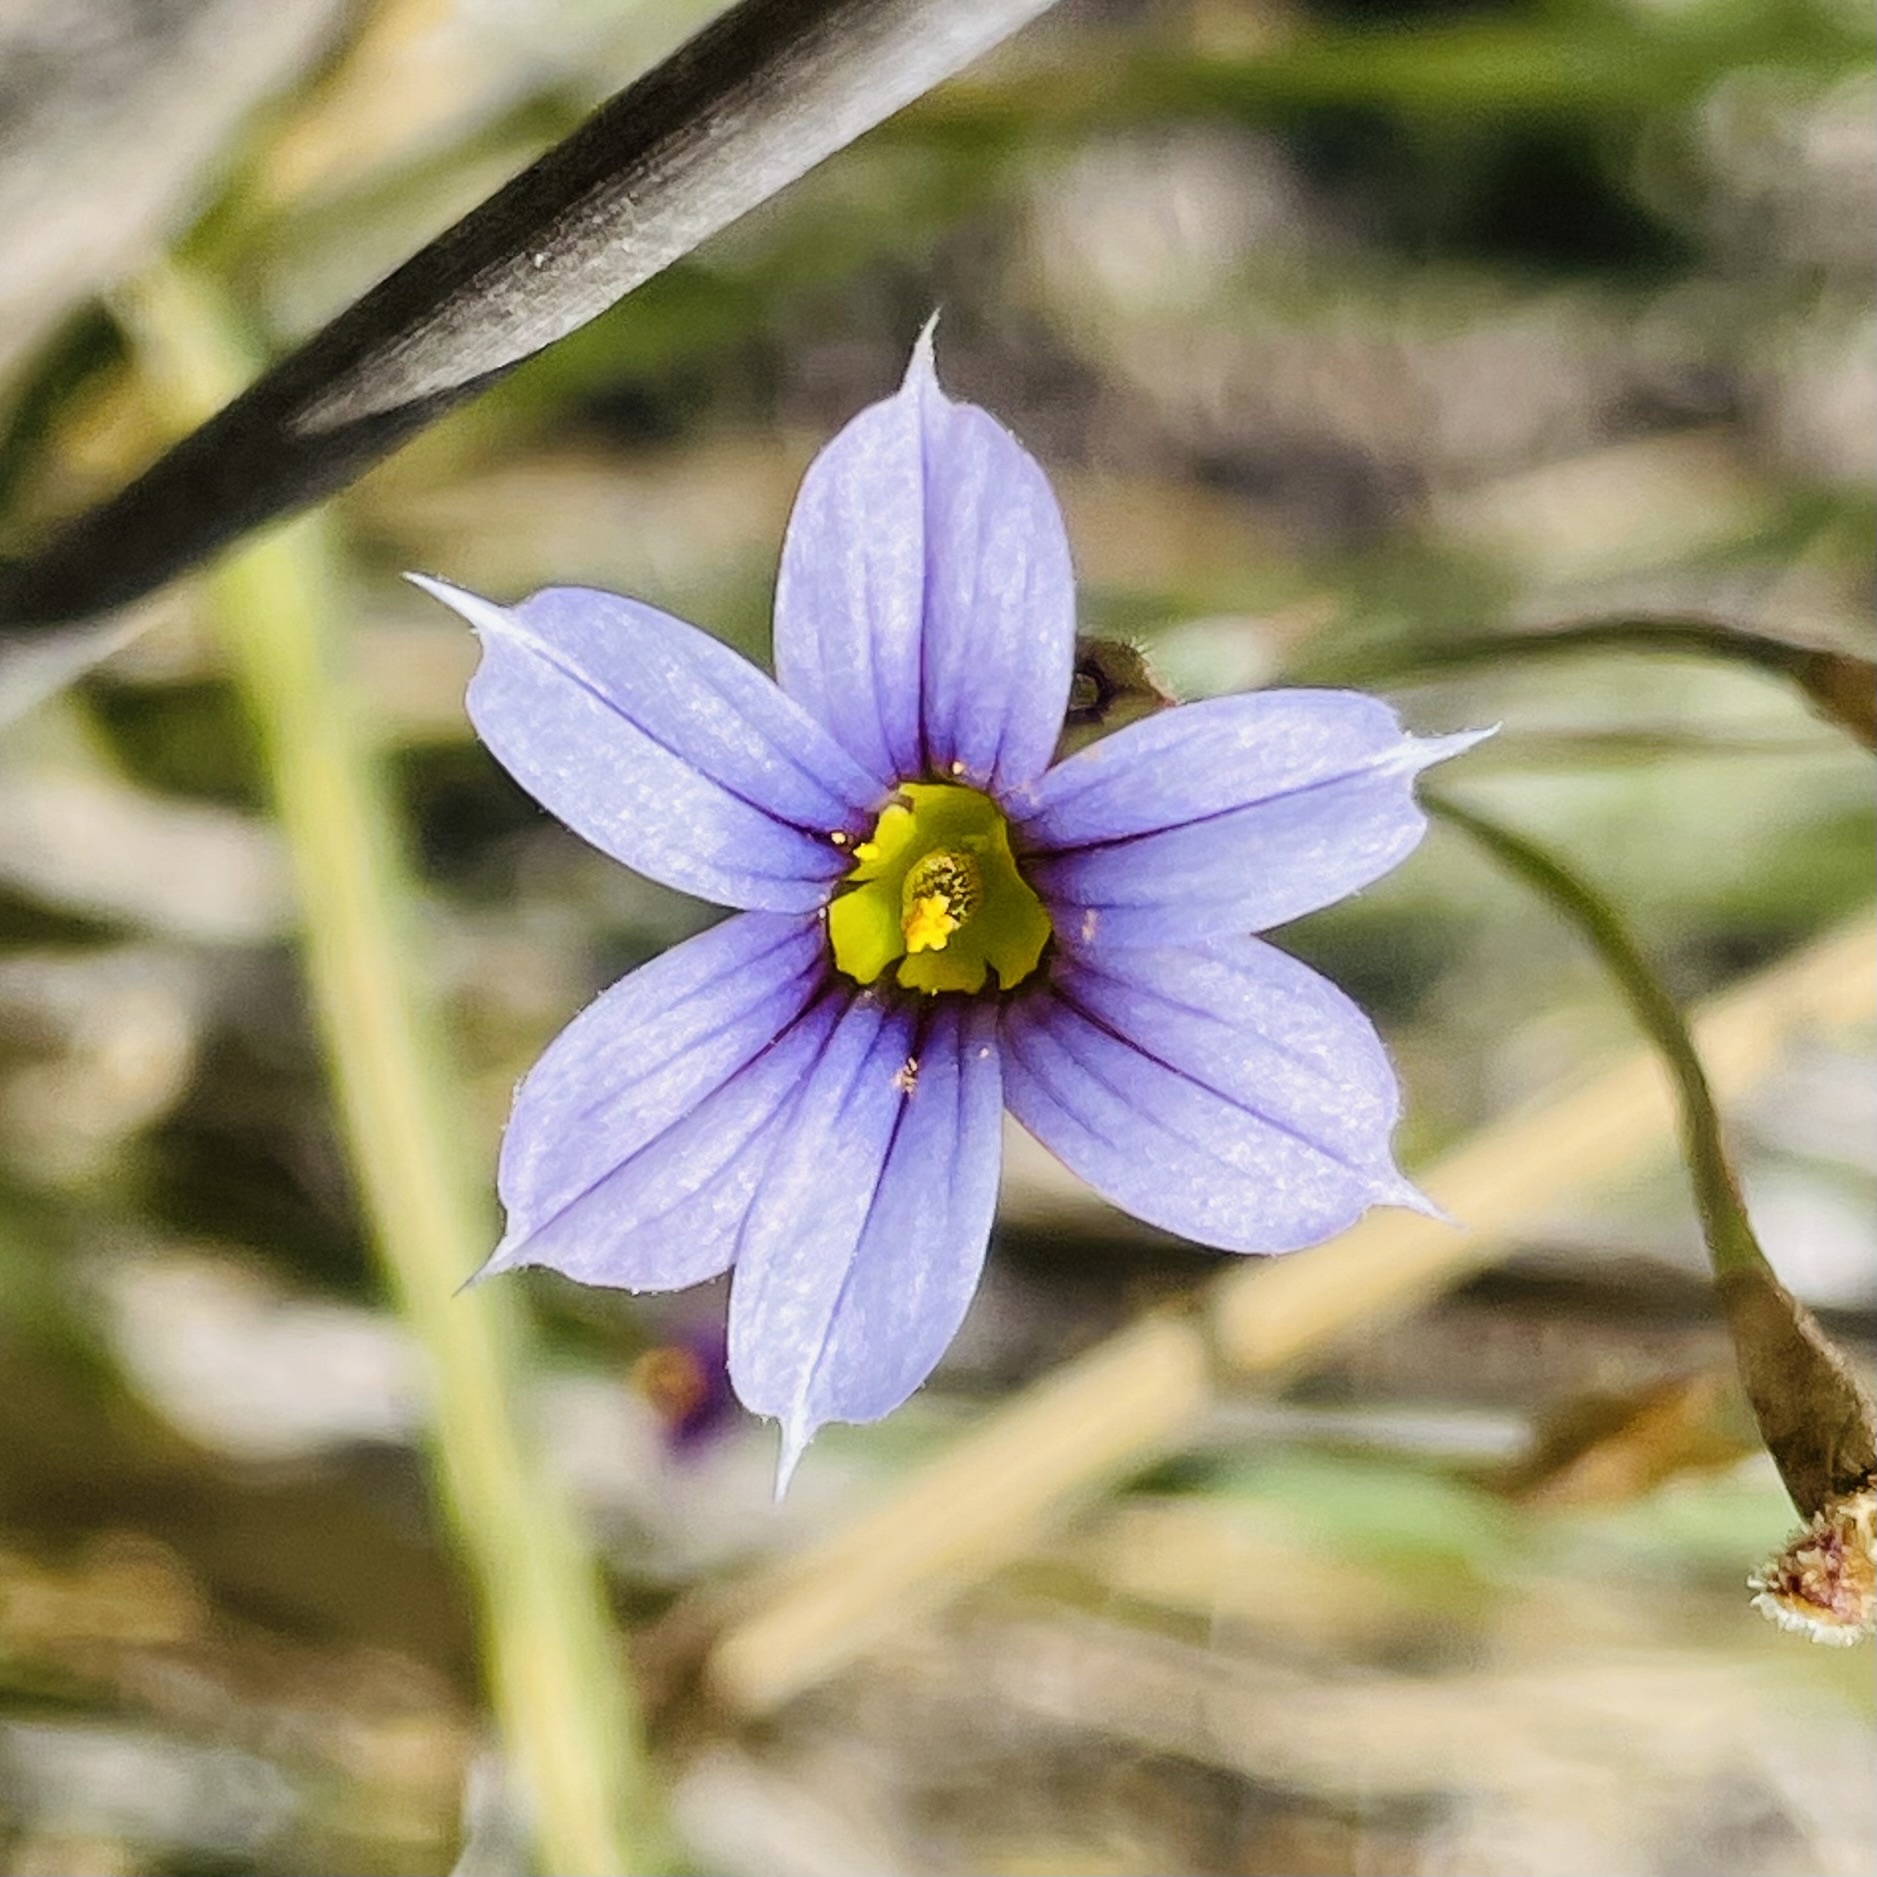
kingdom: Plantae
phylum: Tracheophyta
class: Liliopsida
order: Asparagales
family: Iridaceae
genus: Sisyrinchium
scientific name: Sisyrinchium azureum
